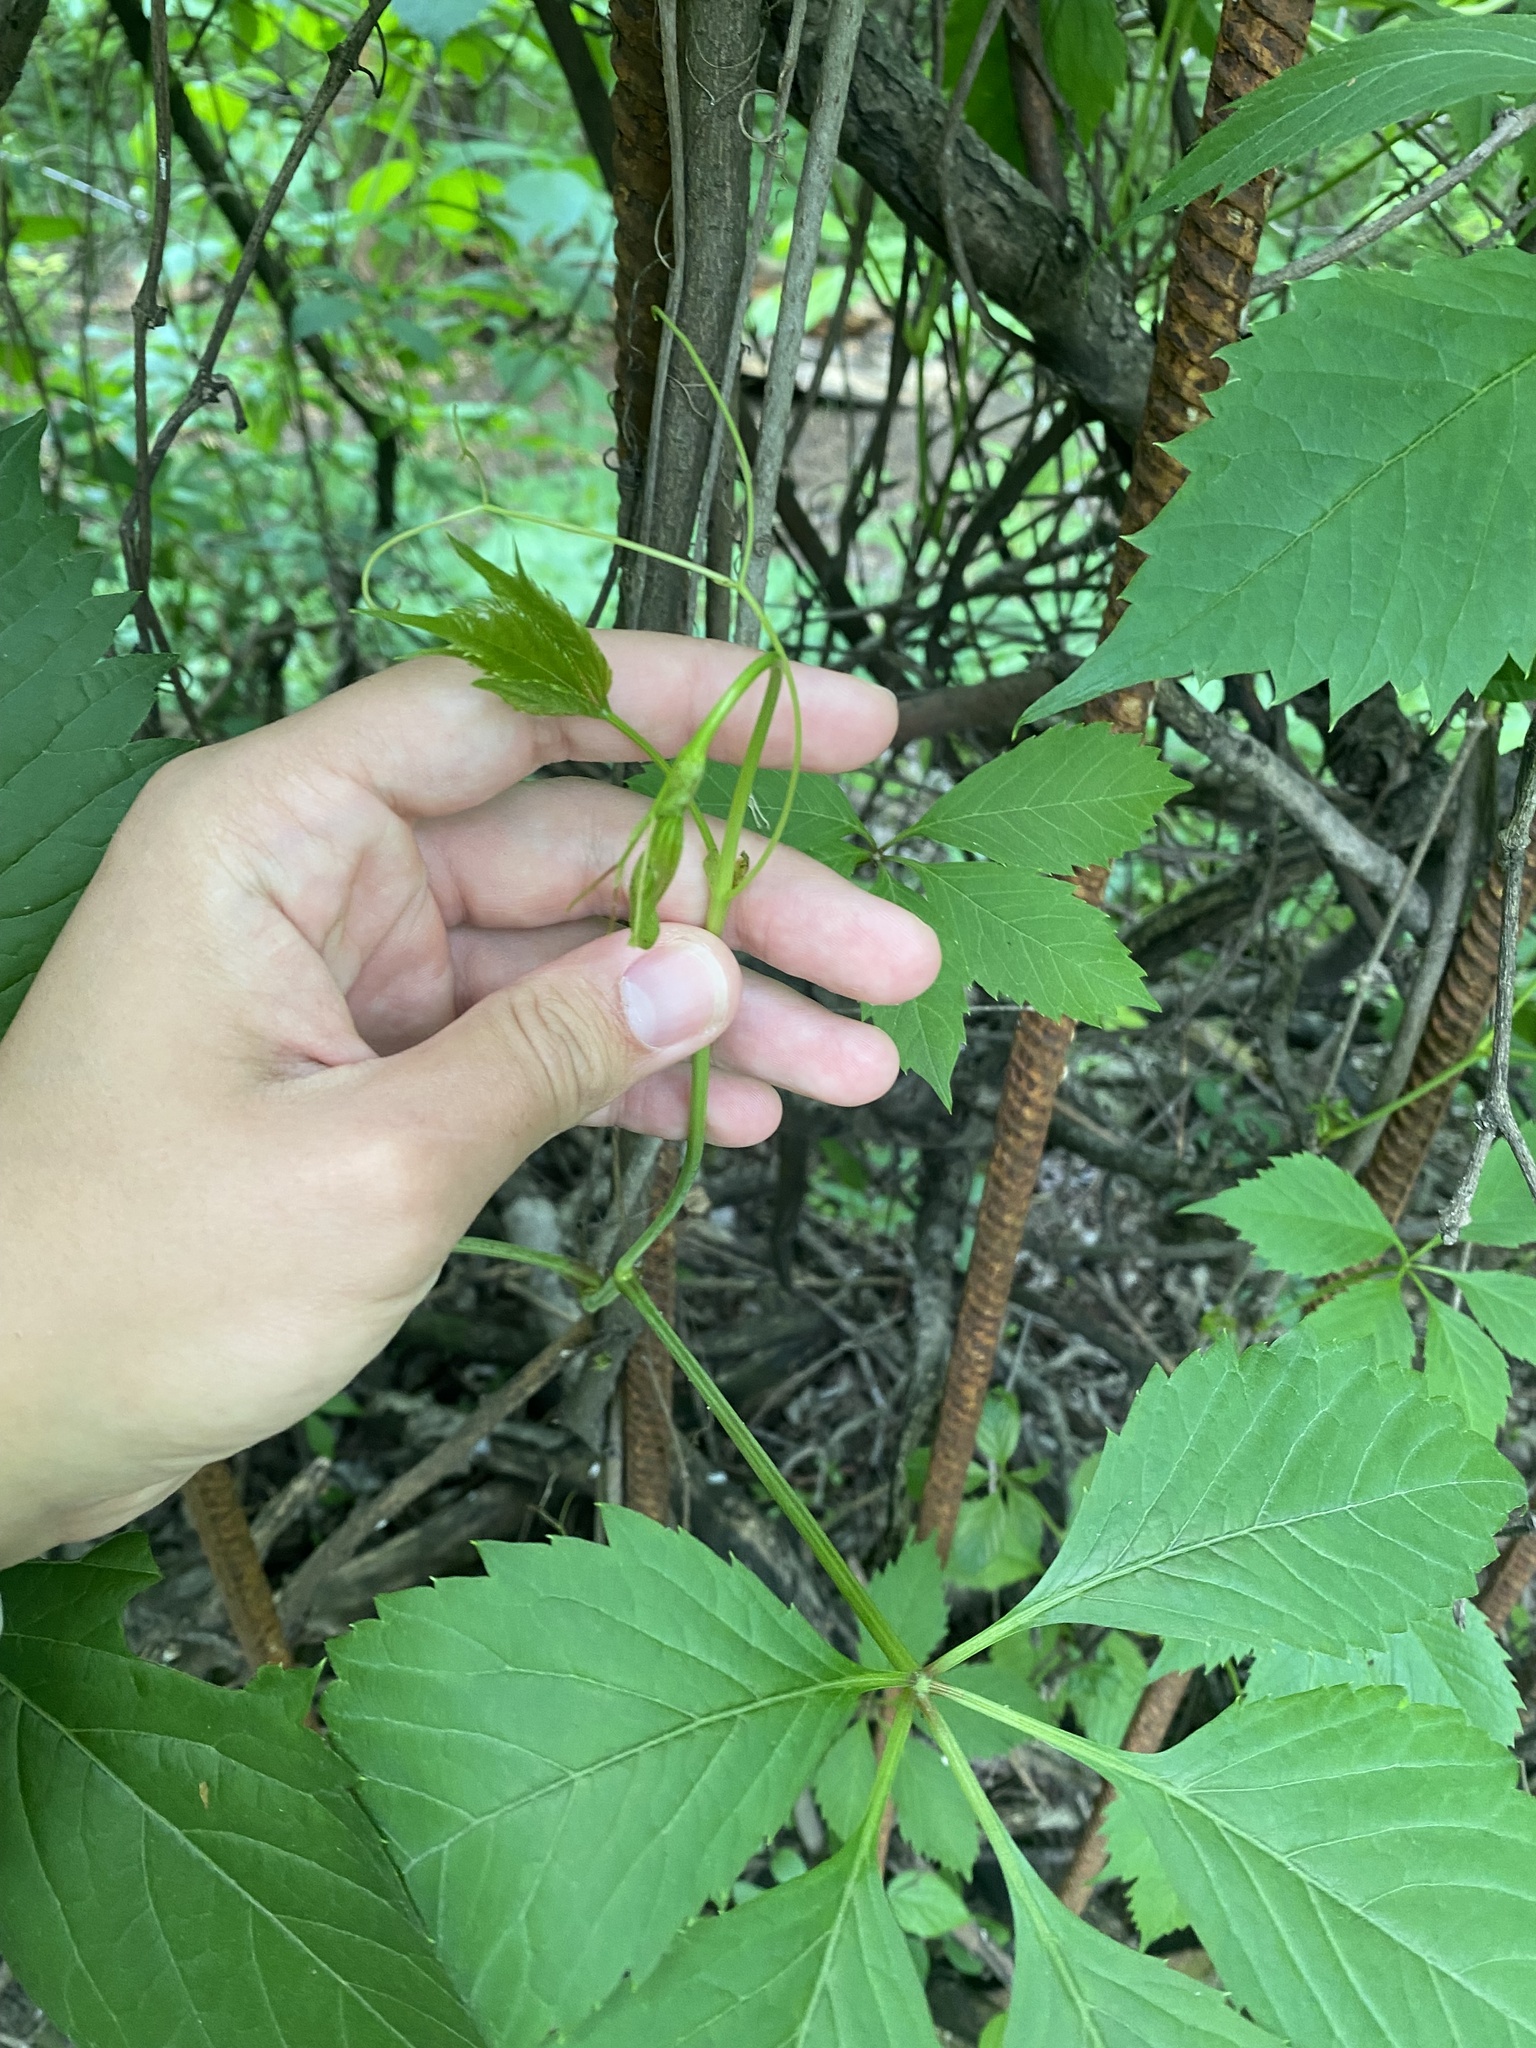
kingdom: Plantae
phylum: Tracheophyta
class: Magnoliopsida
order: Vitales
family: Vitaceae
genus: Parthenocissus
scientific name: Parthenocissus inserta
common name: False virginia-creeper
